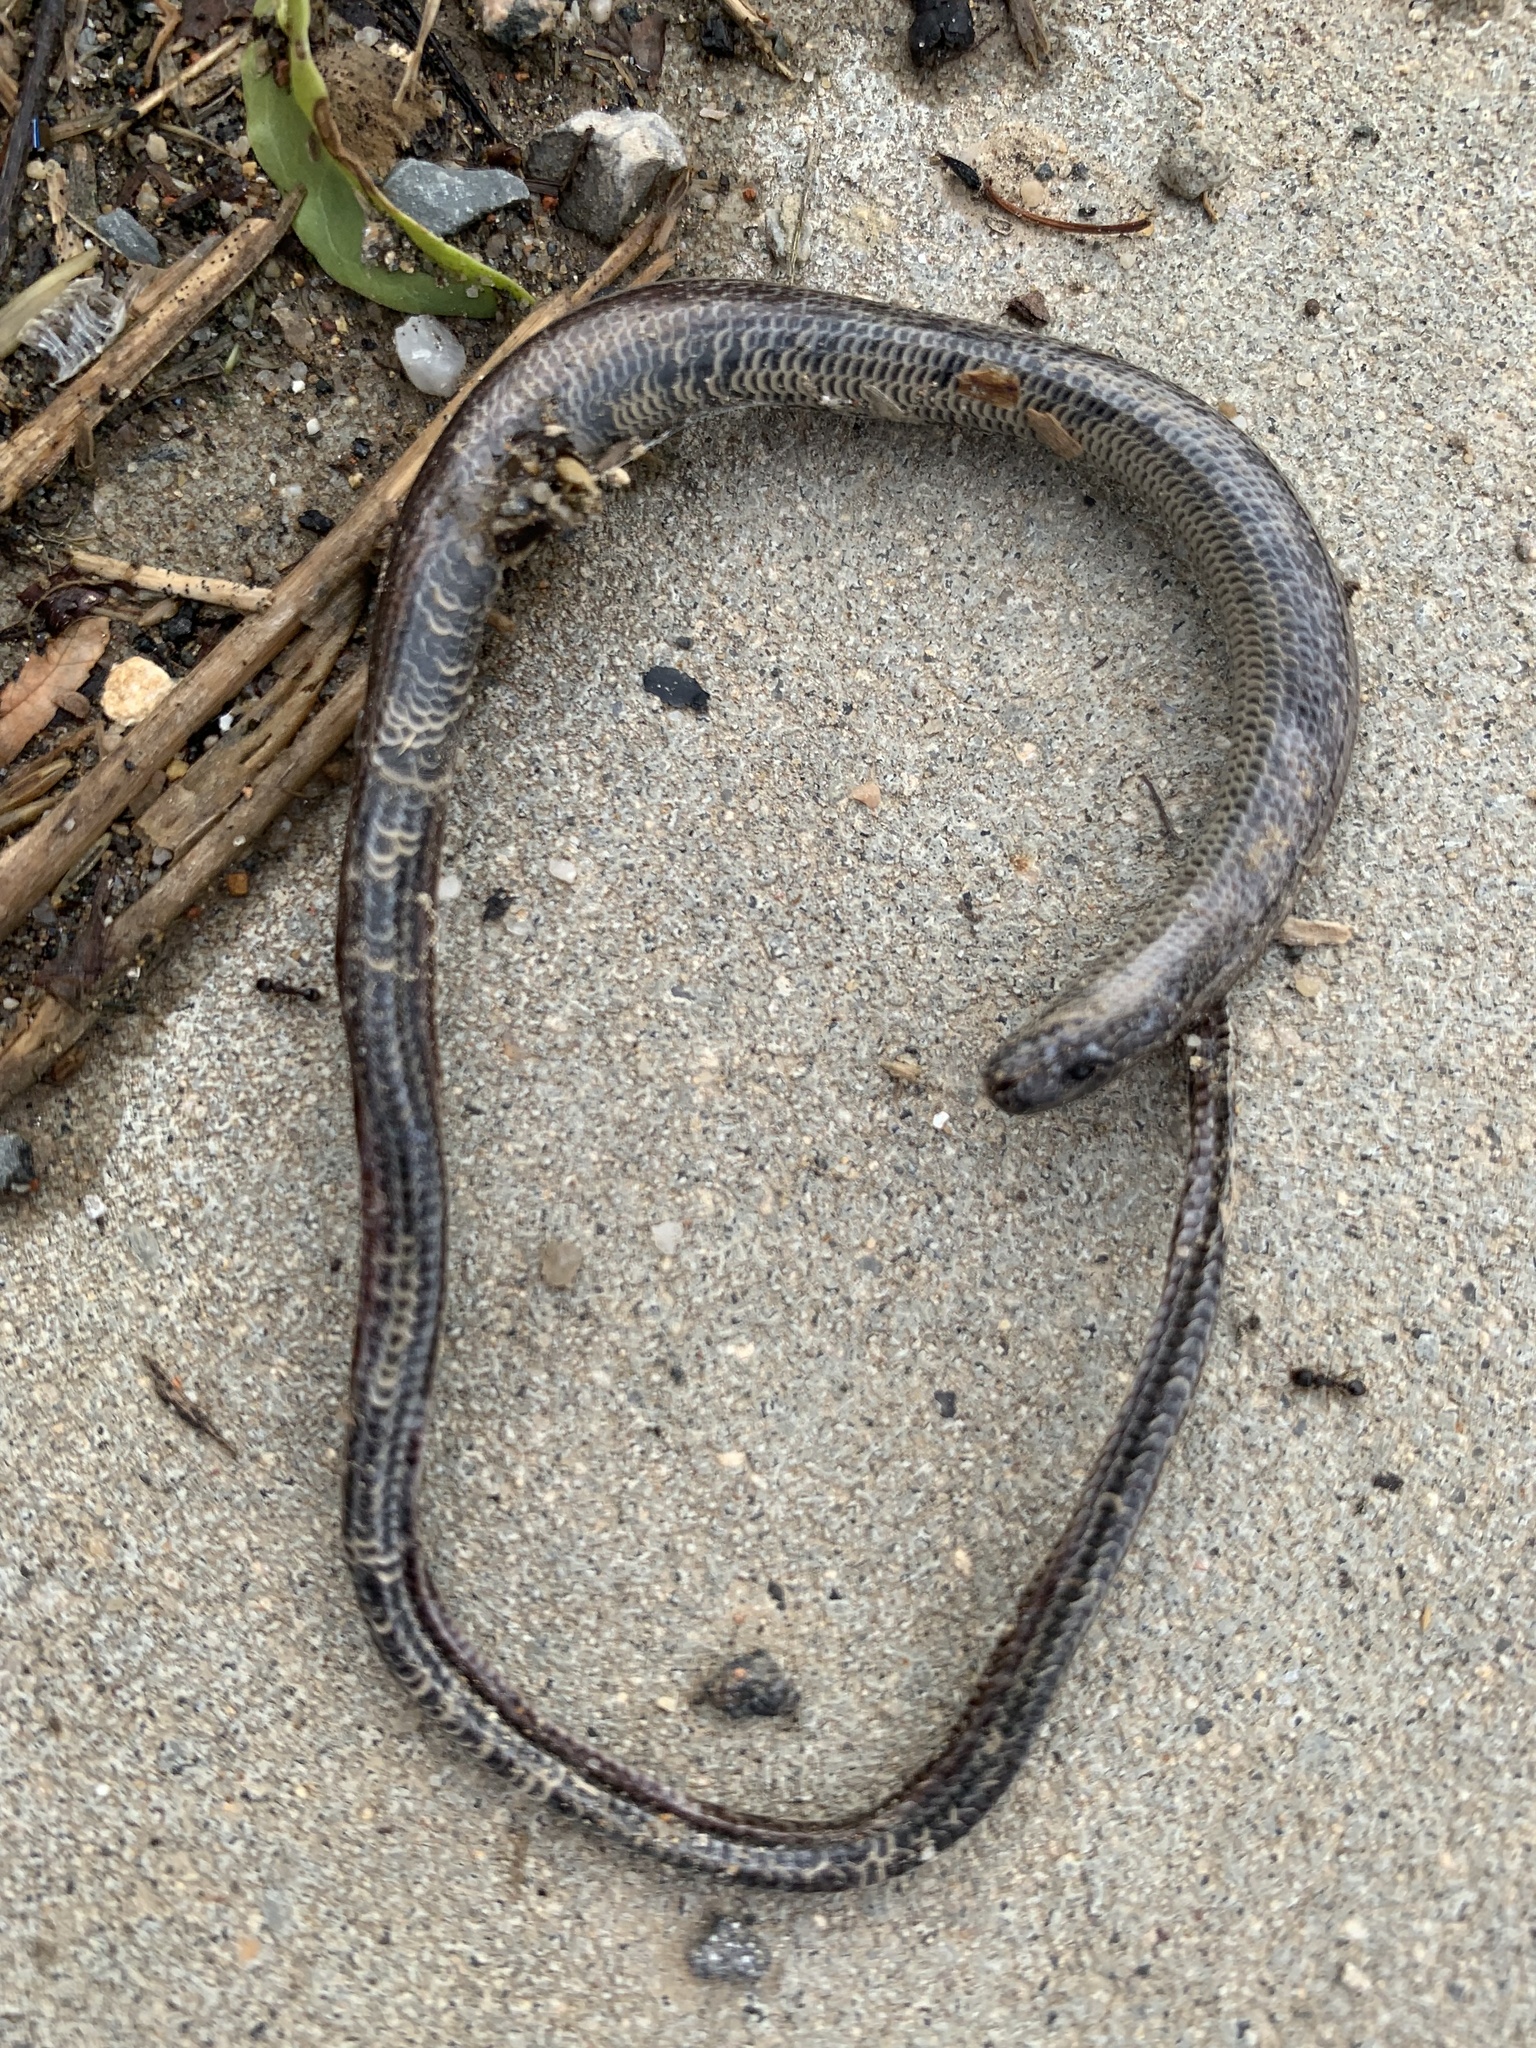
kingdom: Animalia
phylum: Chordata
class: Squamata
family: Anguidae
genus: Anguis
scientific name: Anguis fragilis
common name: Slow worm
